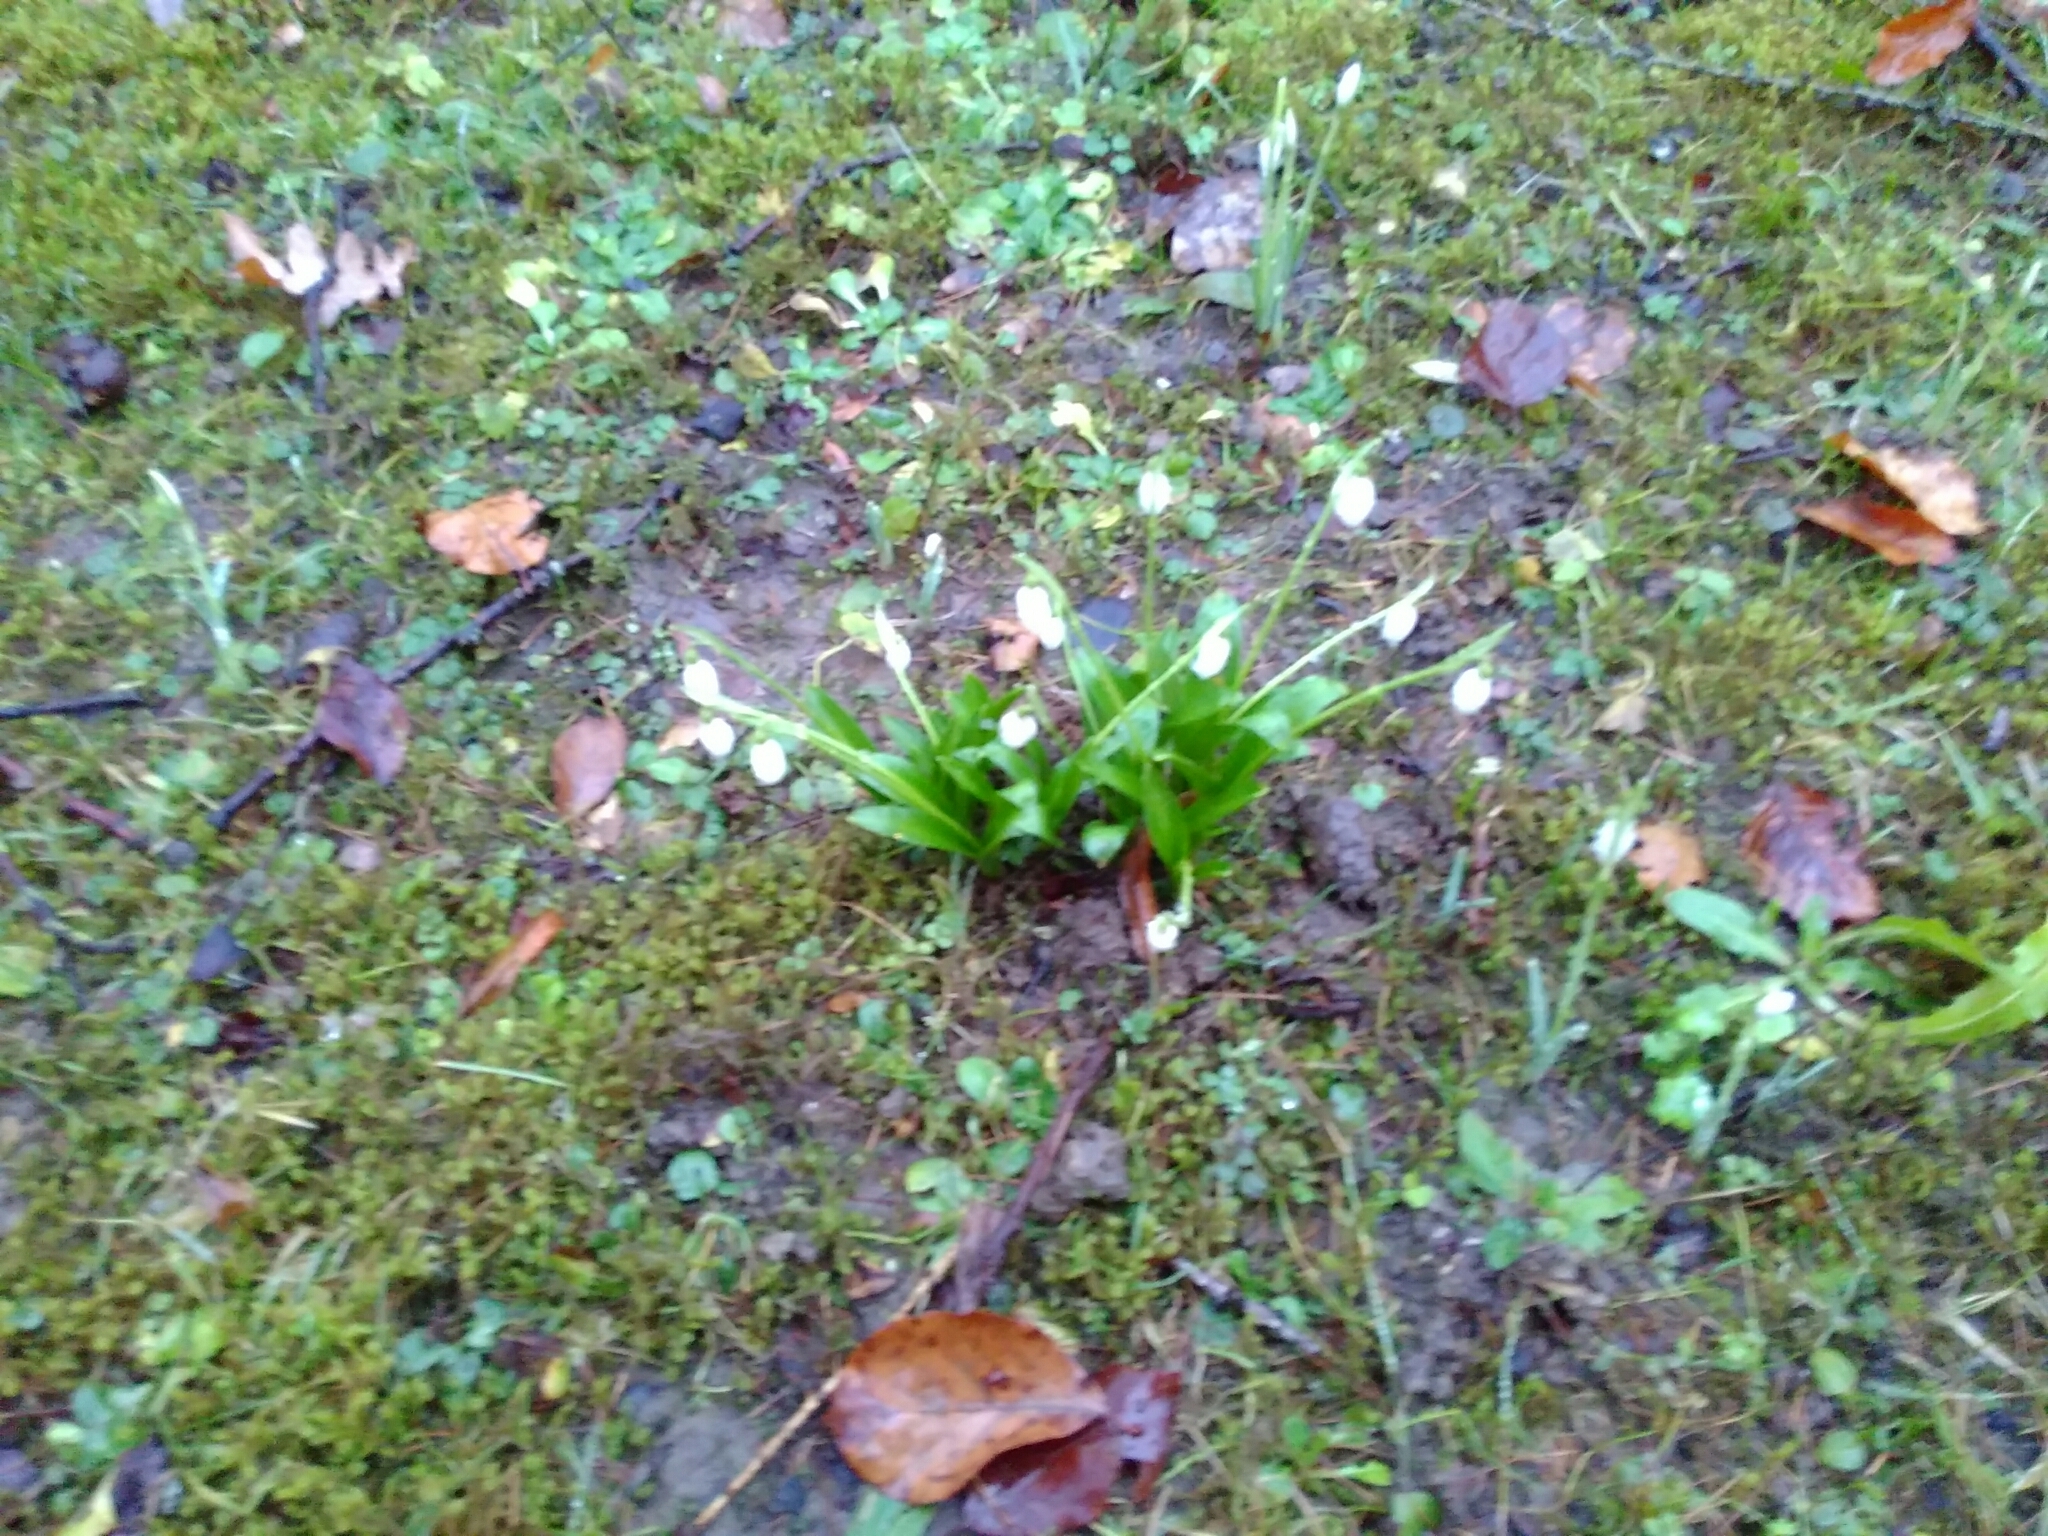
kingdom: Plantae
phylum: Tracheophyta
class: Liliopsida
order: Asparagales
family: Amaryllidaceae
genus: Galanthus
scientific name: Galanthus woronowii
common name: Green snowdrop
